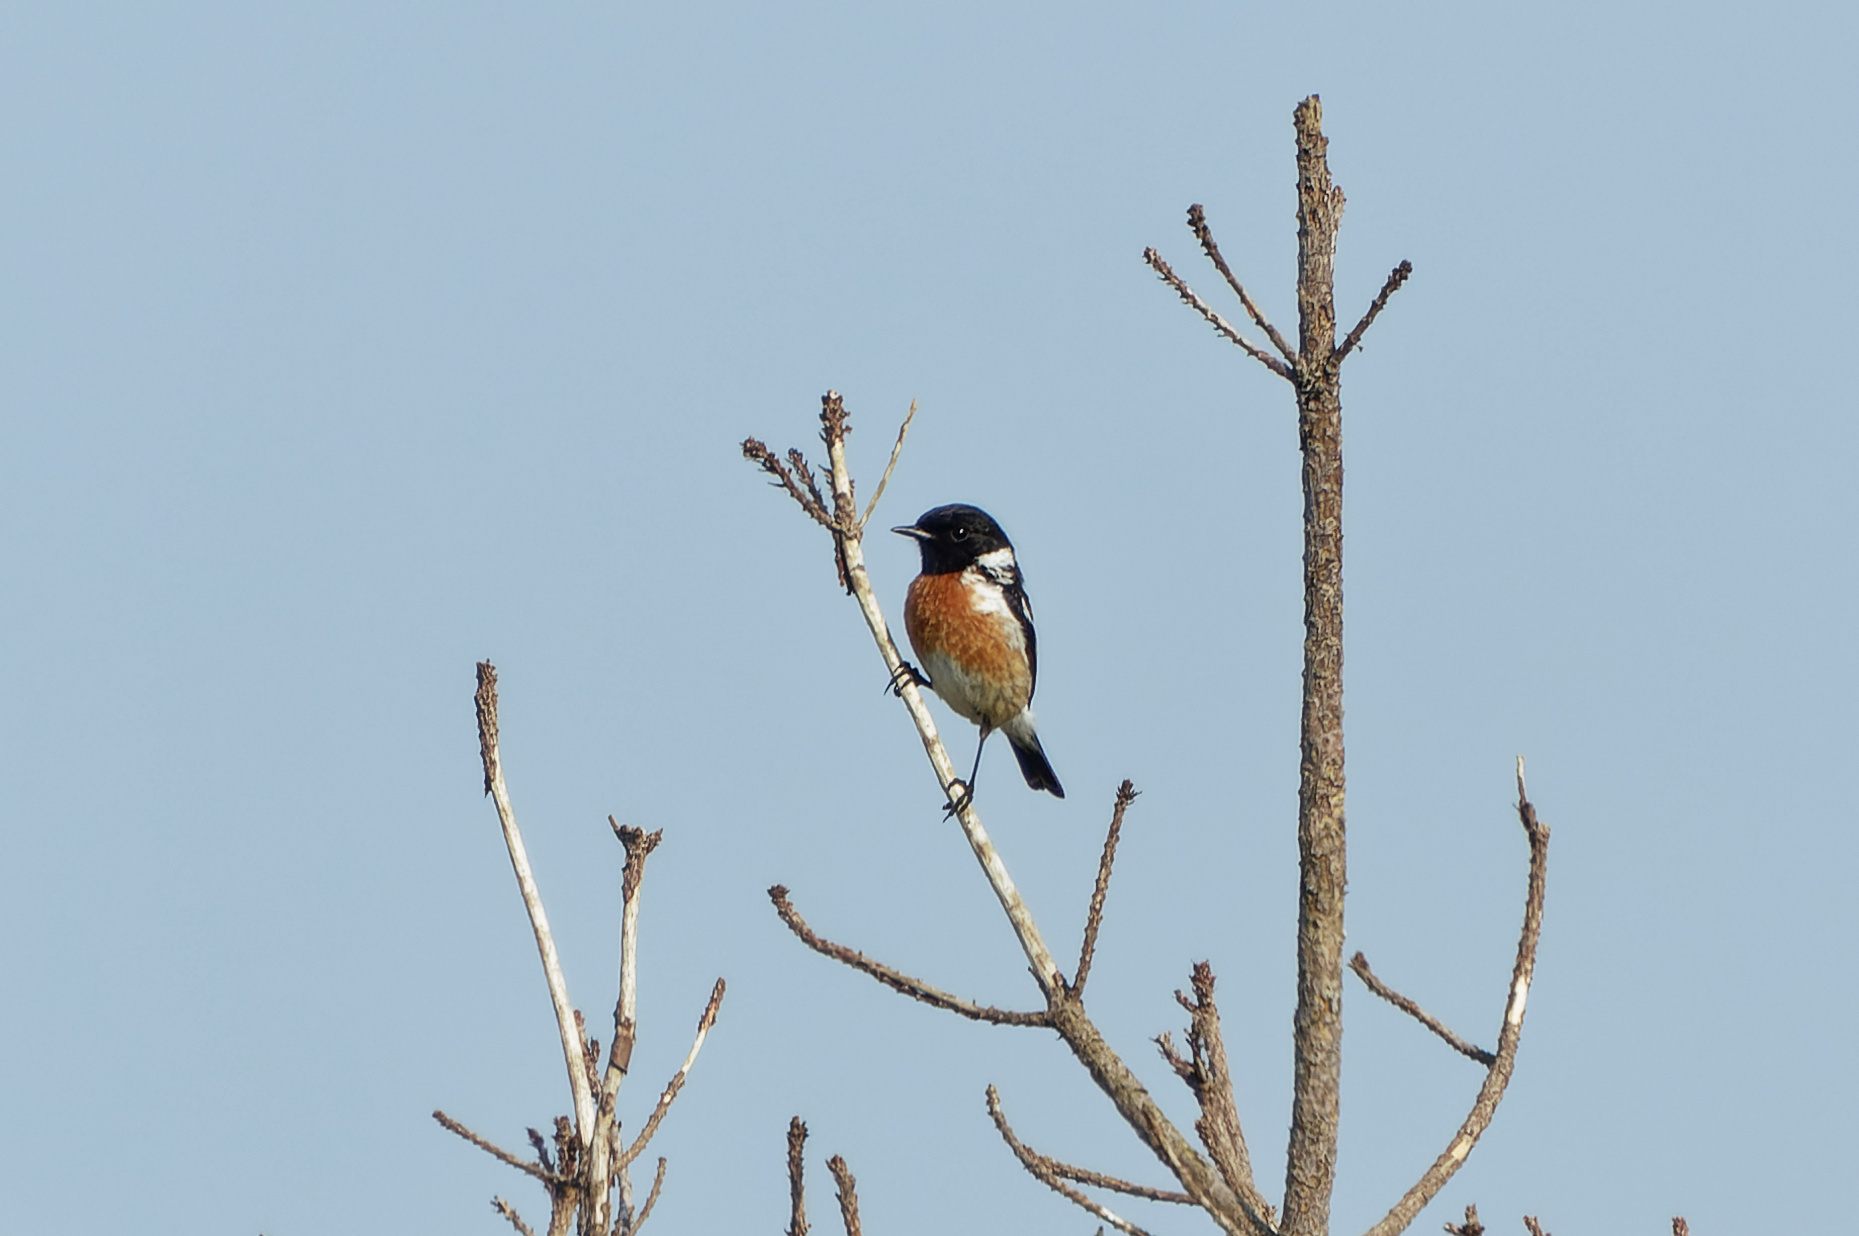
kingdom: Animalia
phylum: Chordata
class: Aves
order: Passeriformes
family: Muscicapidae
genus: Saxicola
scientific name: Saxicola rubicola
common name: European stonechat
